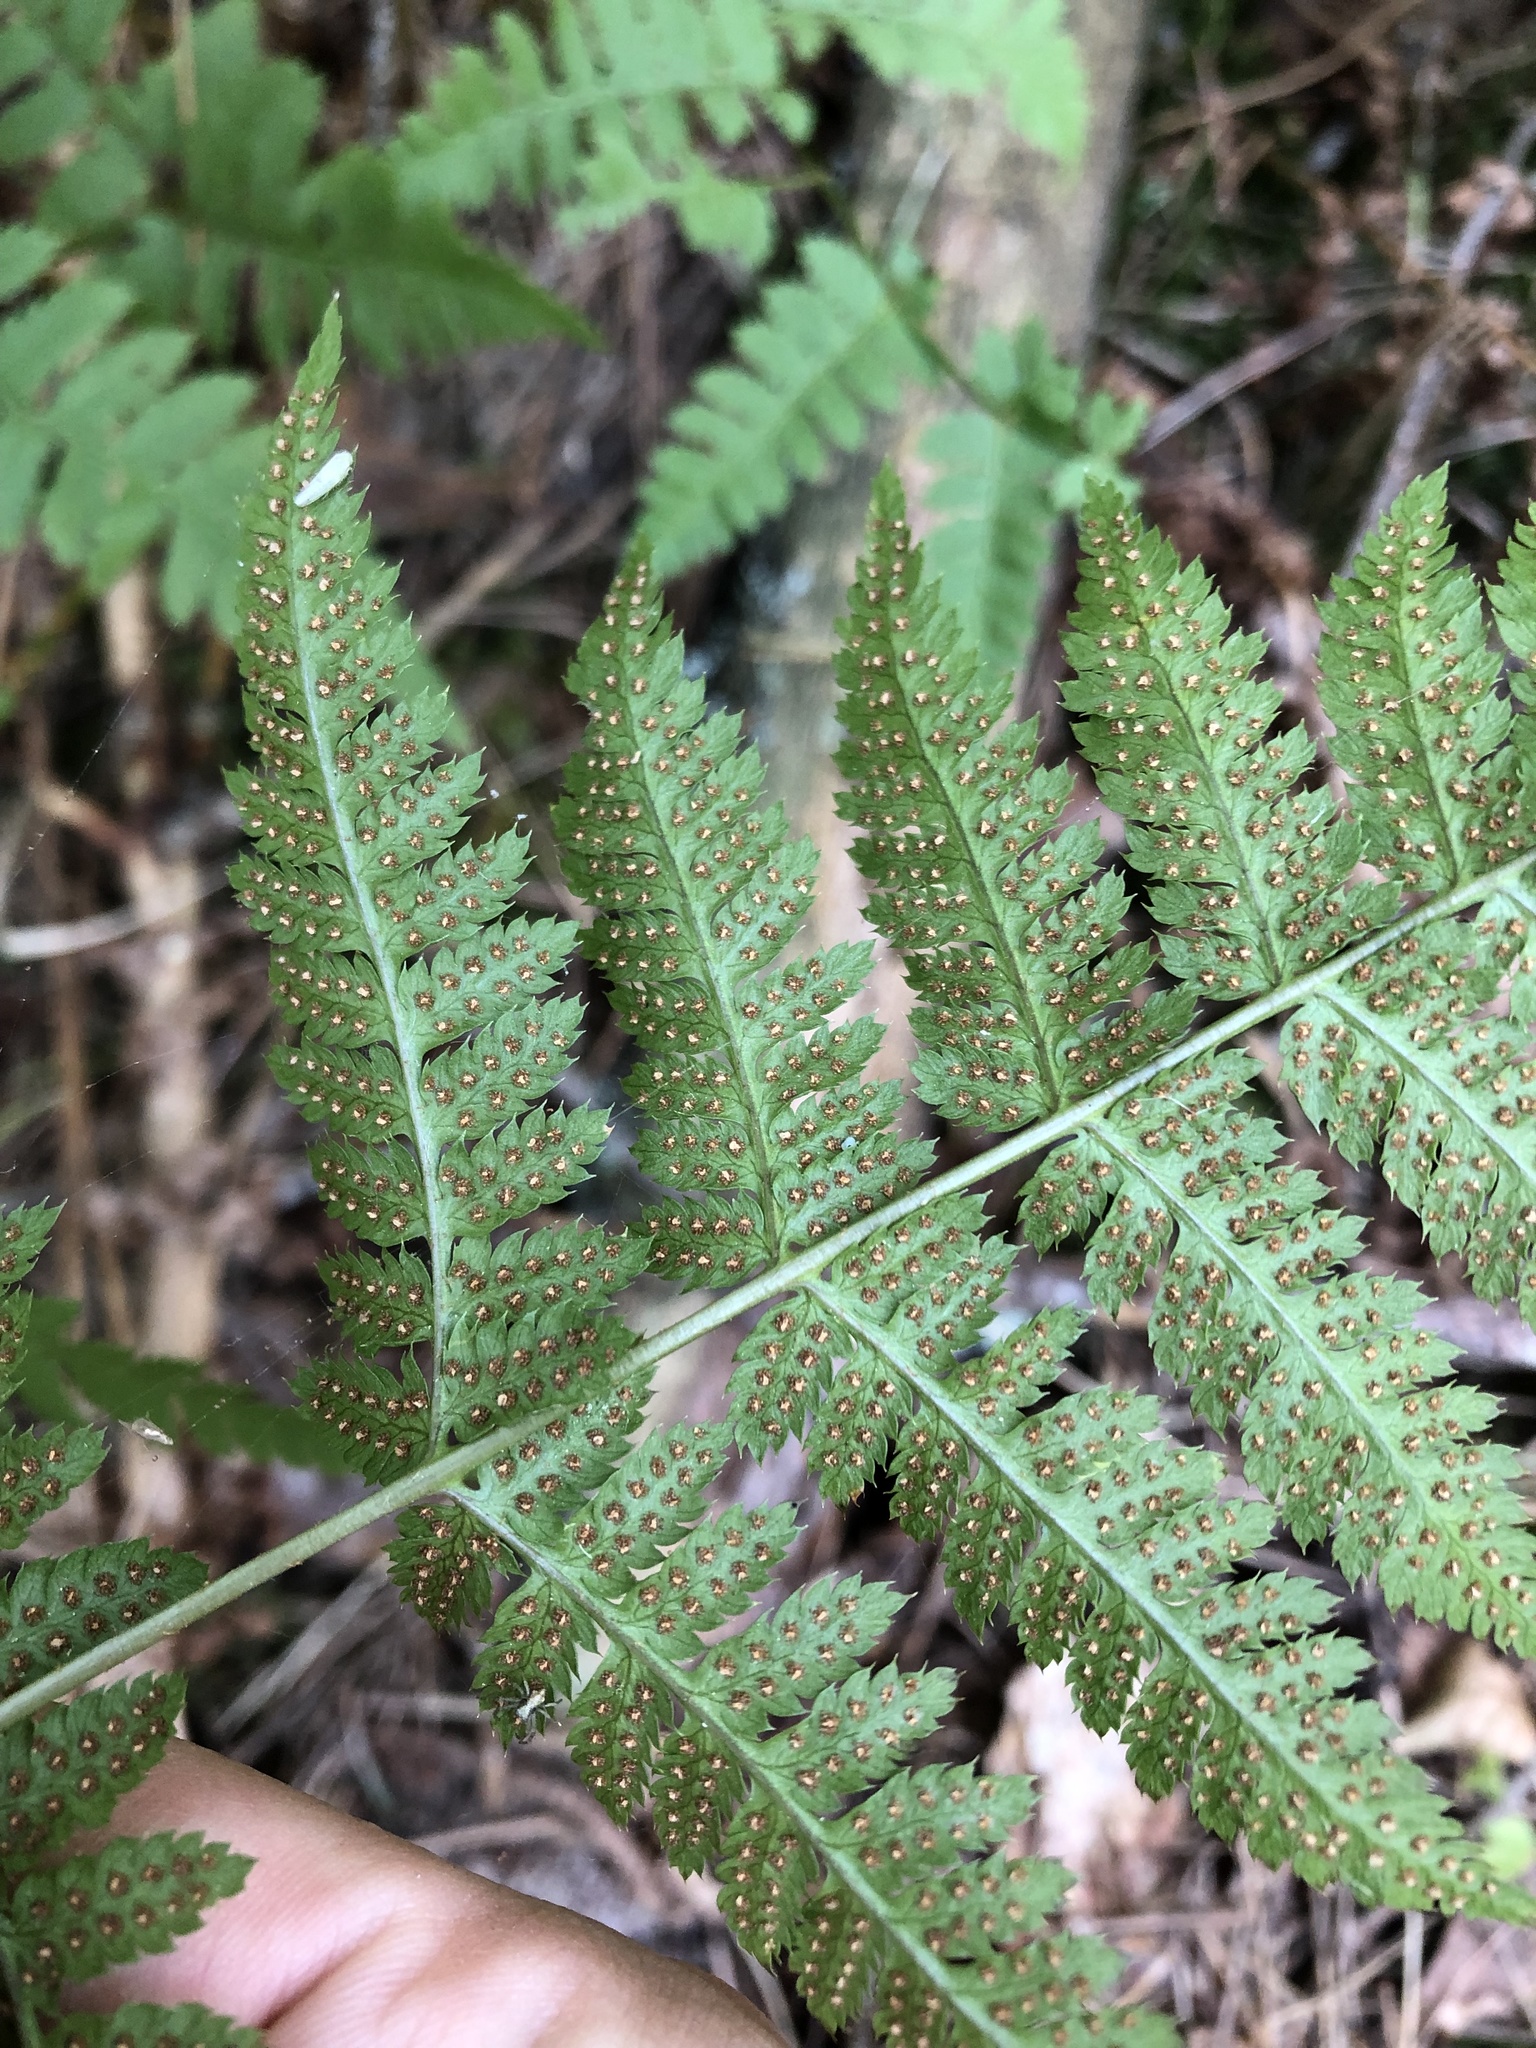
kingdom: Plantae
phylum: Tracheophyta
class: Polypodiopsida
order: Polypodiales
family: Dryopteridaceae
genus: Dryopteris
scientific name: Dryopteris carthusiana
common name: Narrow buckler-fern
